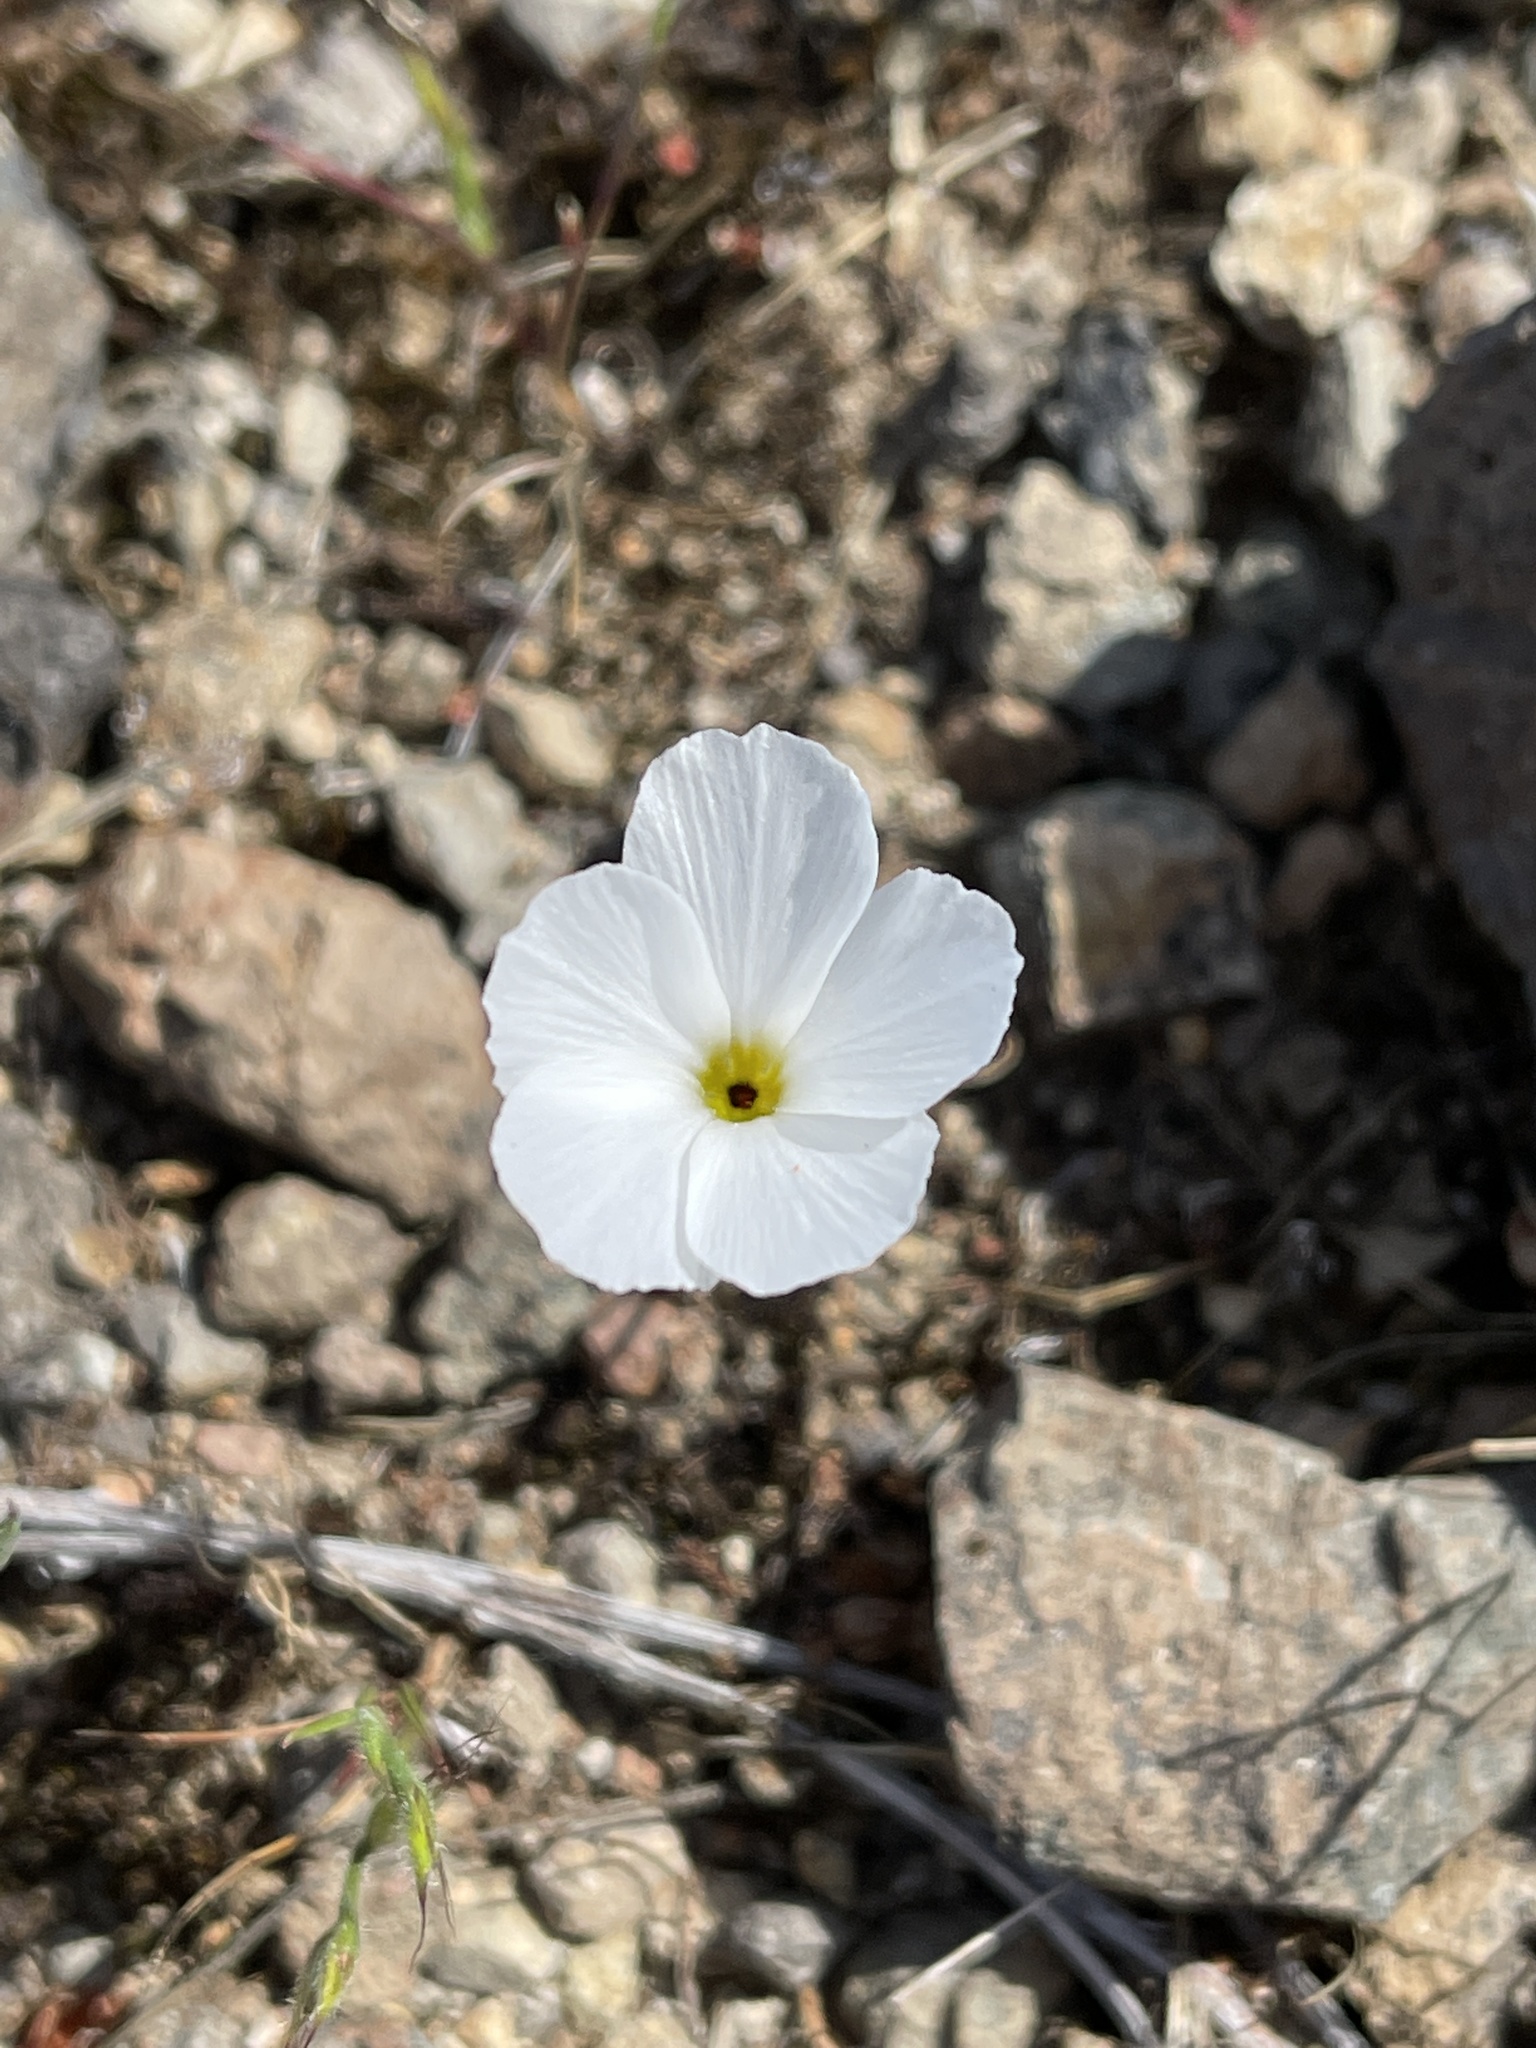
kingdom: Plantae
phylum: Tracheophyta
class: Magnoliopsida
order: Ericales
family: Polemoniaceae
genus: Linanthus
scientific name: Linanthus dichotomus
